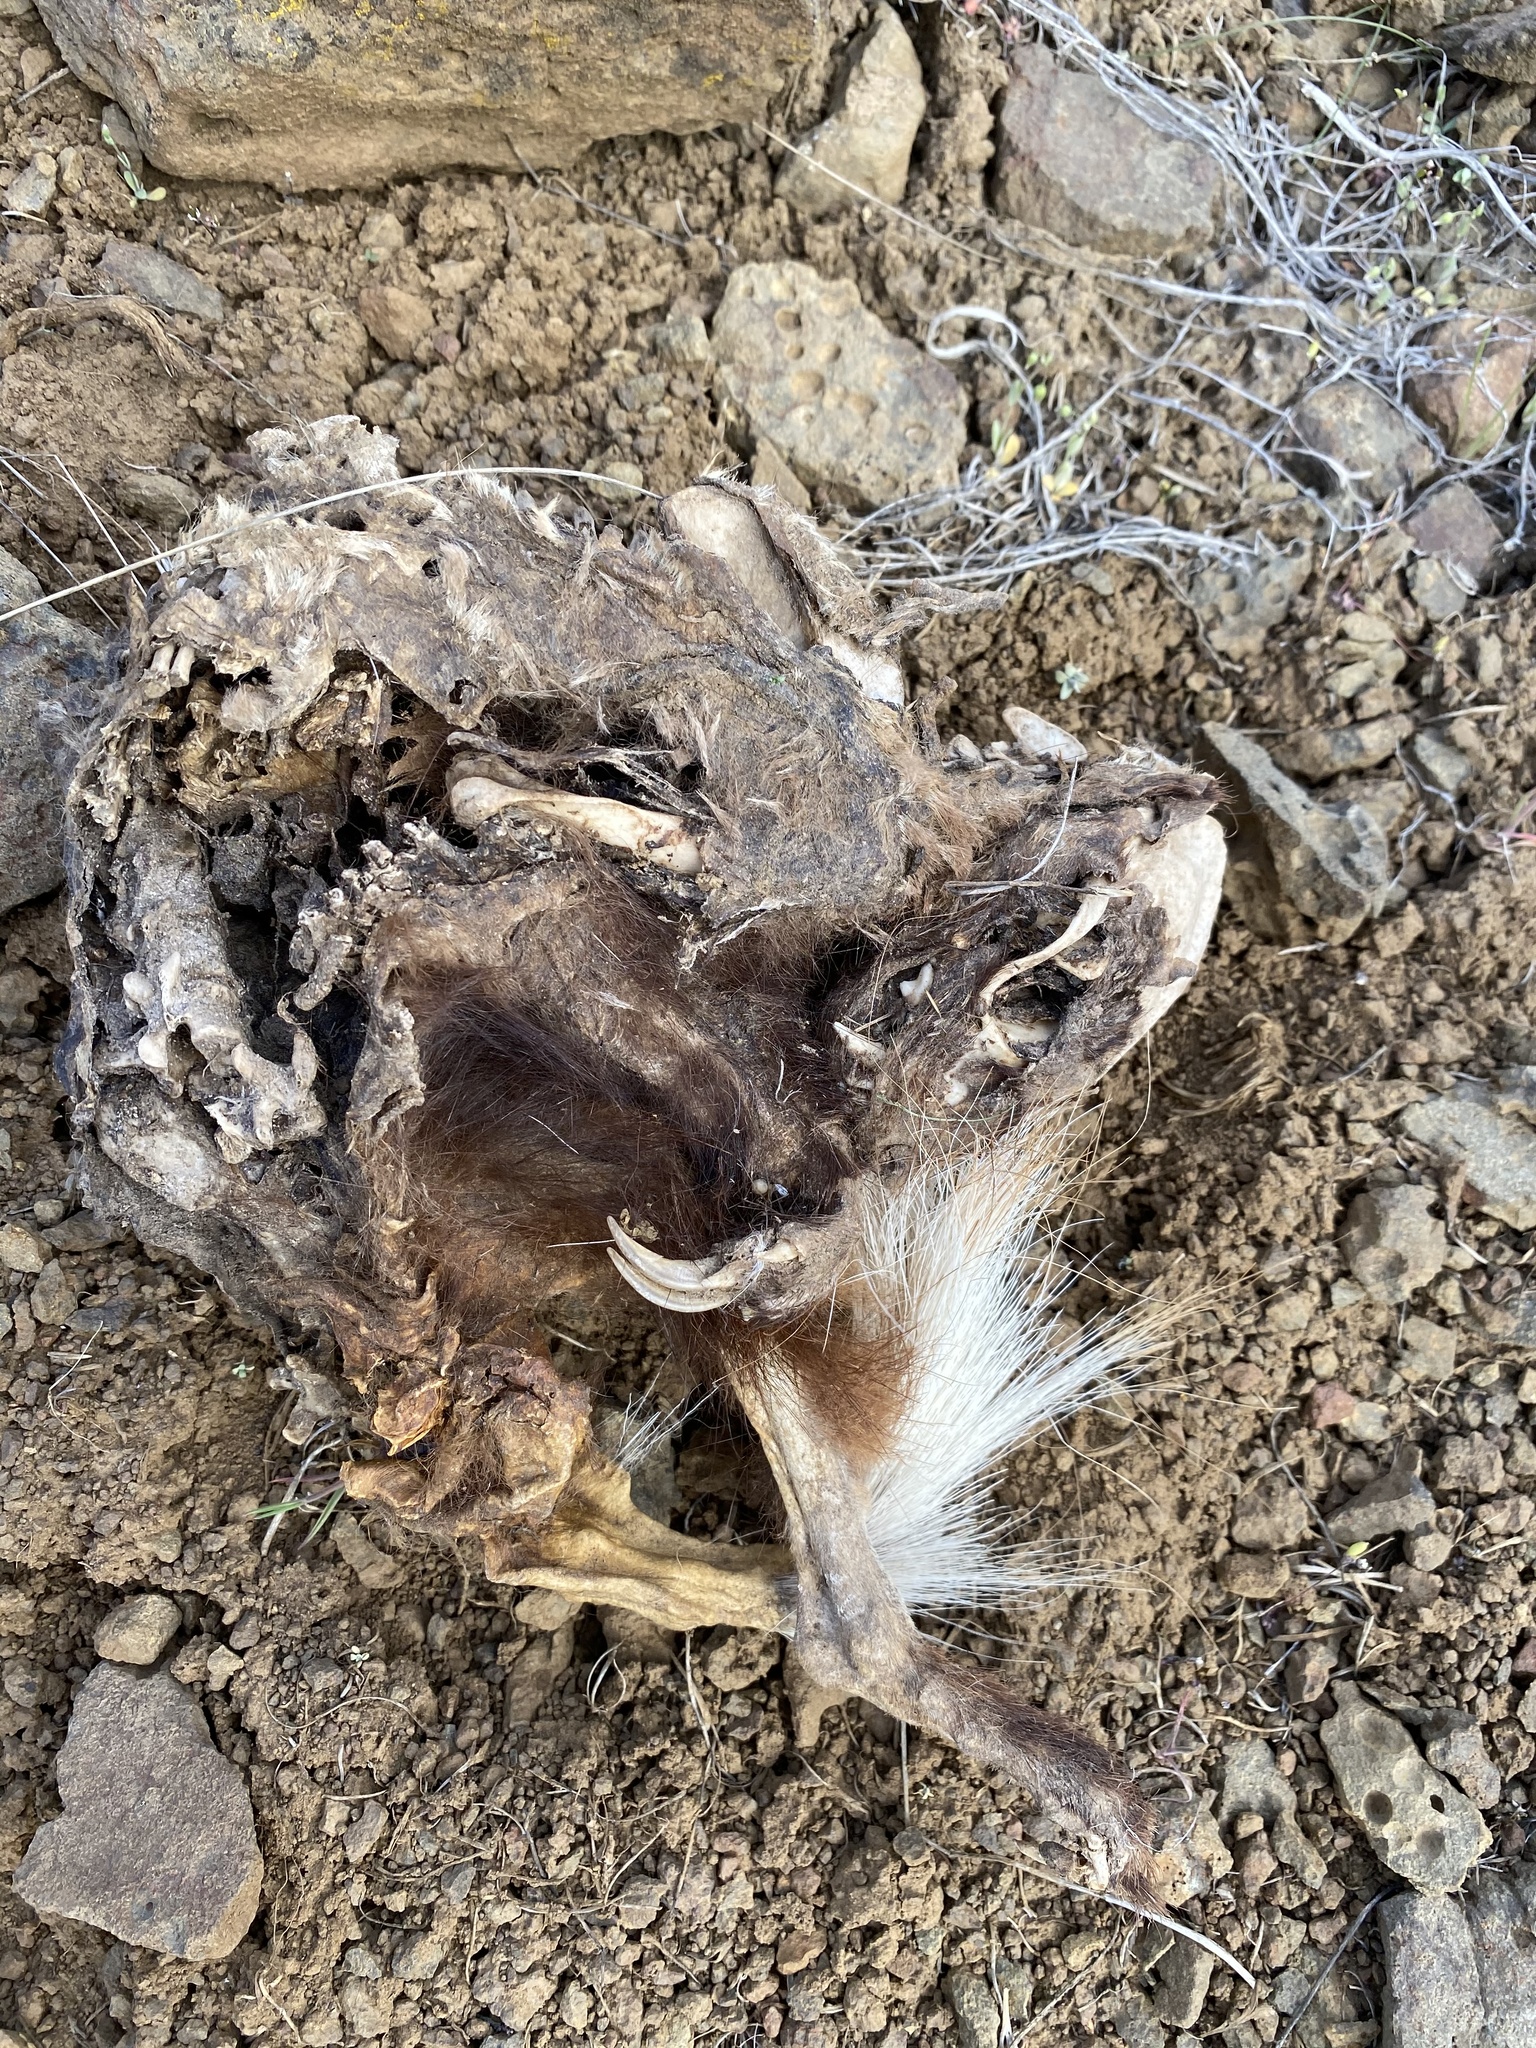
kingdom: Animalia
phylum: Chordata
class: Mammalia
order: Carnivora
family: Mephitidae
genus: Mephitis
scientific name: Mephitis mephitis
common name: Striped skunk
